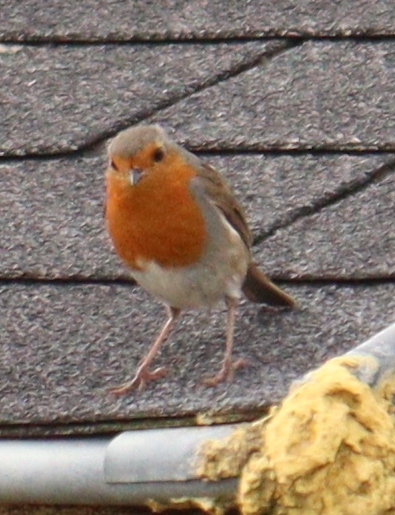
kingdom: Animalia
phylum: Chordata
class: Aves
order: Passeriformes
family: Muscicapidae
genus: Erithacus
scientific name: Erithacus rubecula
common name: European robin
